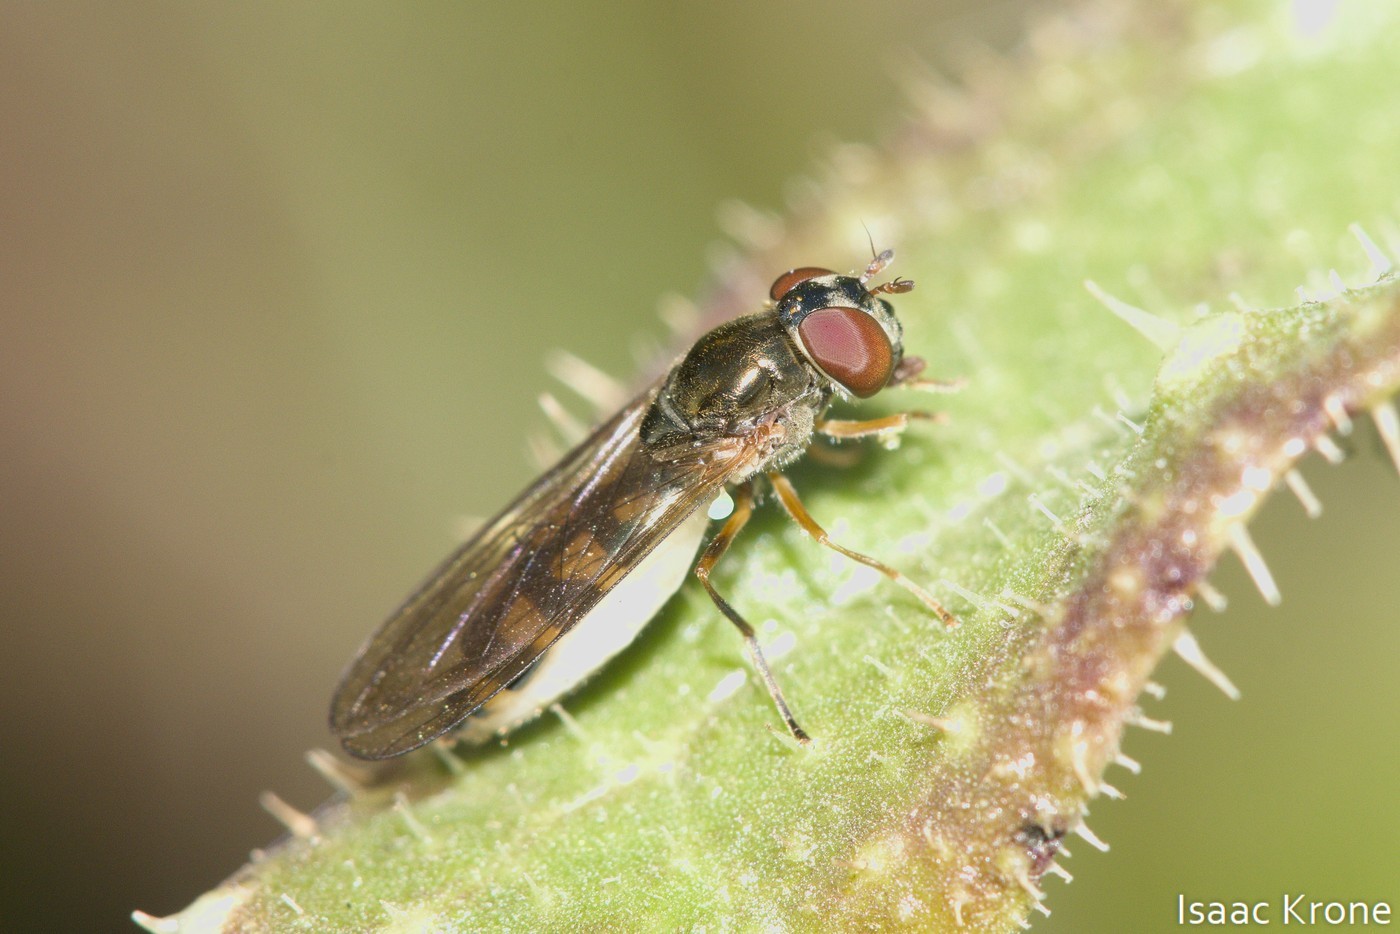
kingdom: Animalia
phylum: Arthropoda
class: Insecta
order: Diptera
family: Syrphidae
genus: Melanostoma
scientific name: Melanostoma mellina
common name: Hover fly
